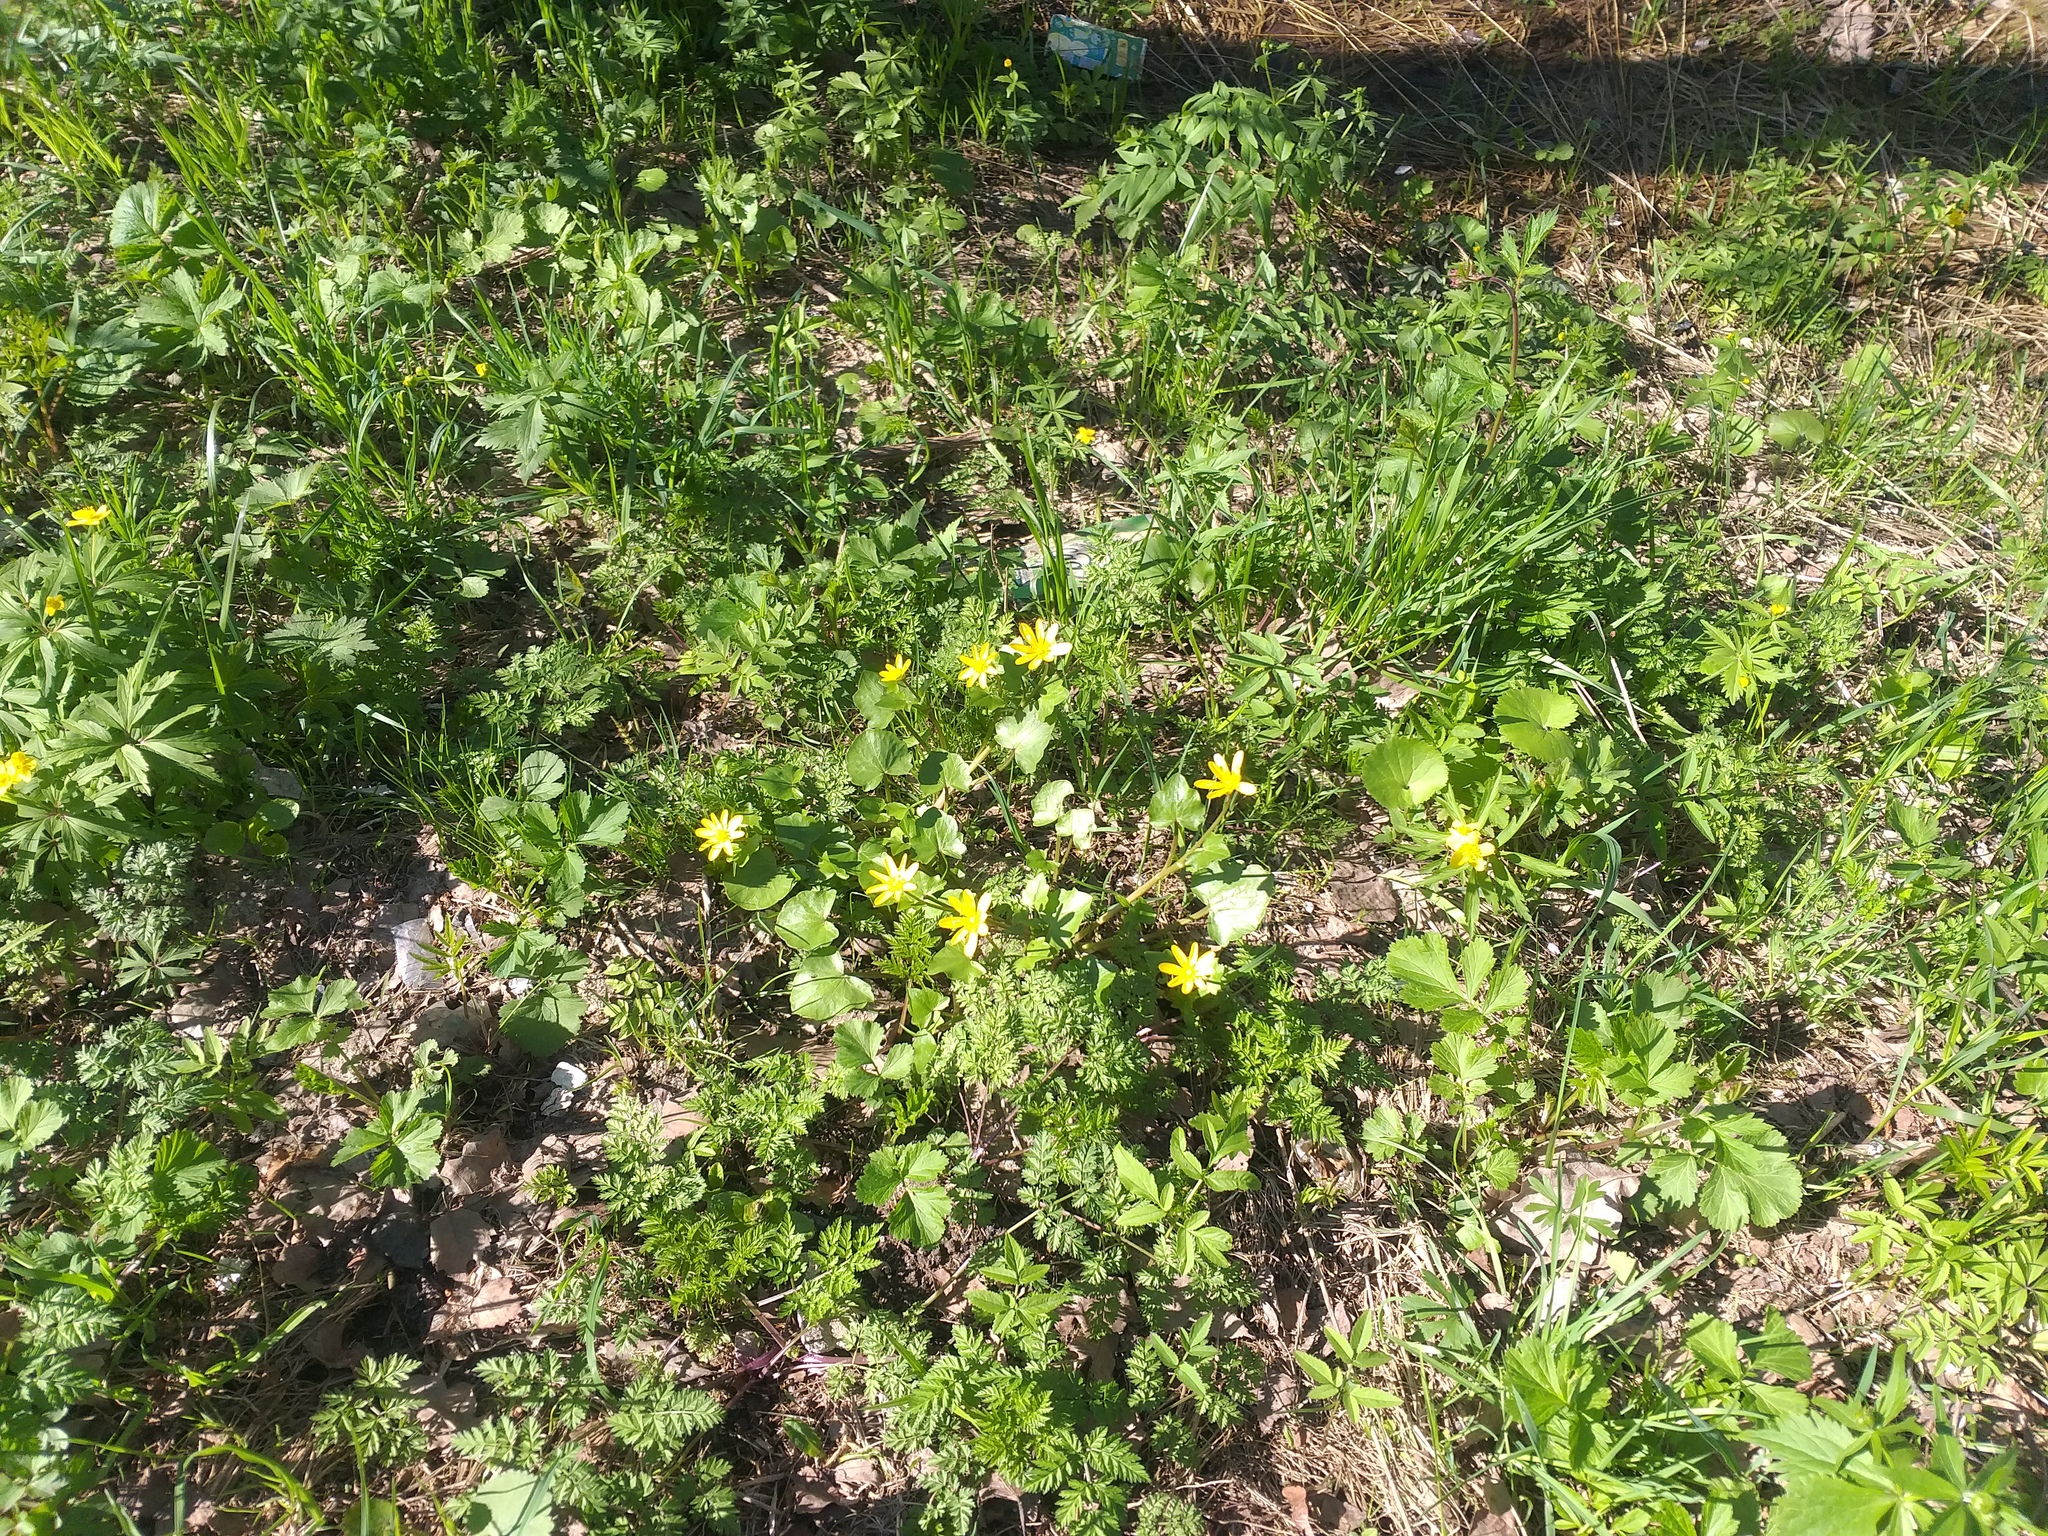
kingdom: Plantae
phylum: Tracheophyta
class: Magnoliopsida
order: Ranunculales
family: Ranunculaceae
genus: Ficaria
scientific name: Ficaria verna
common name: Lesser celandine
